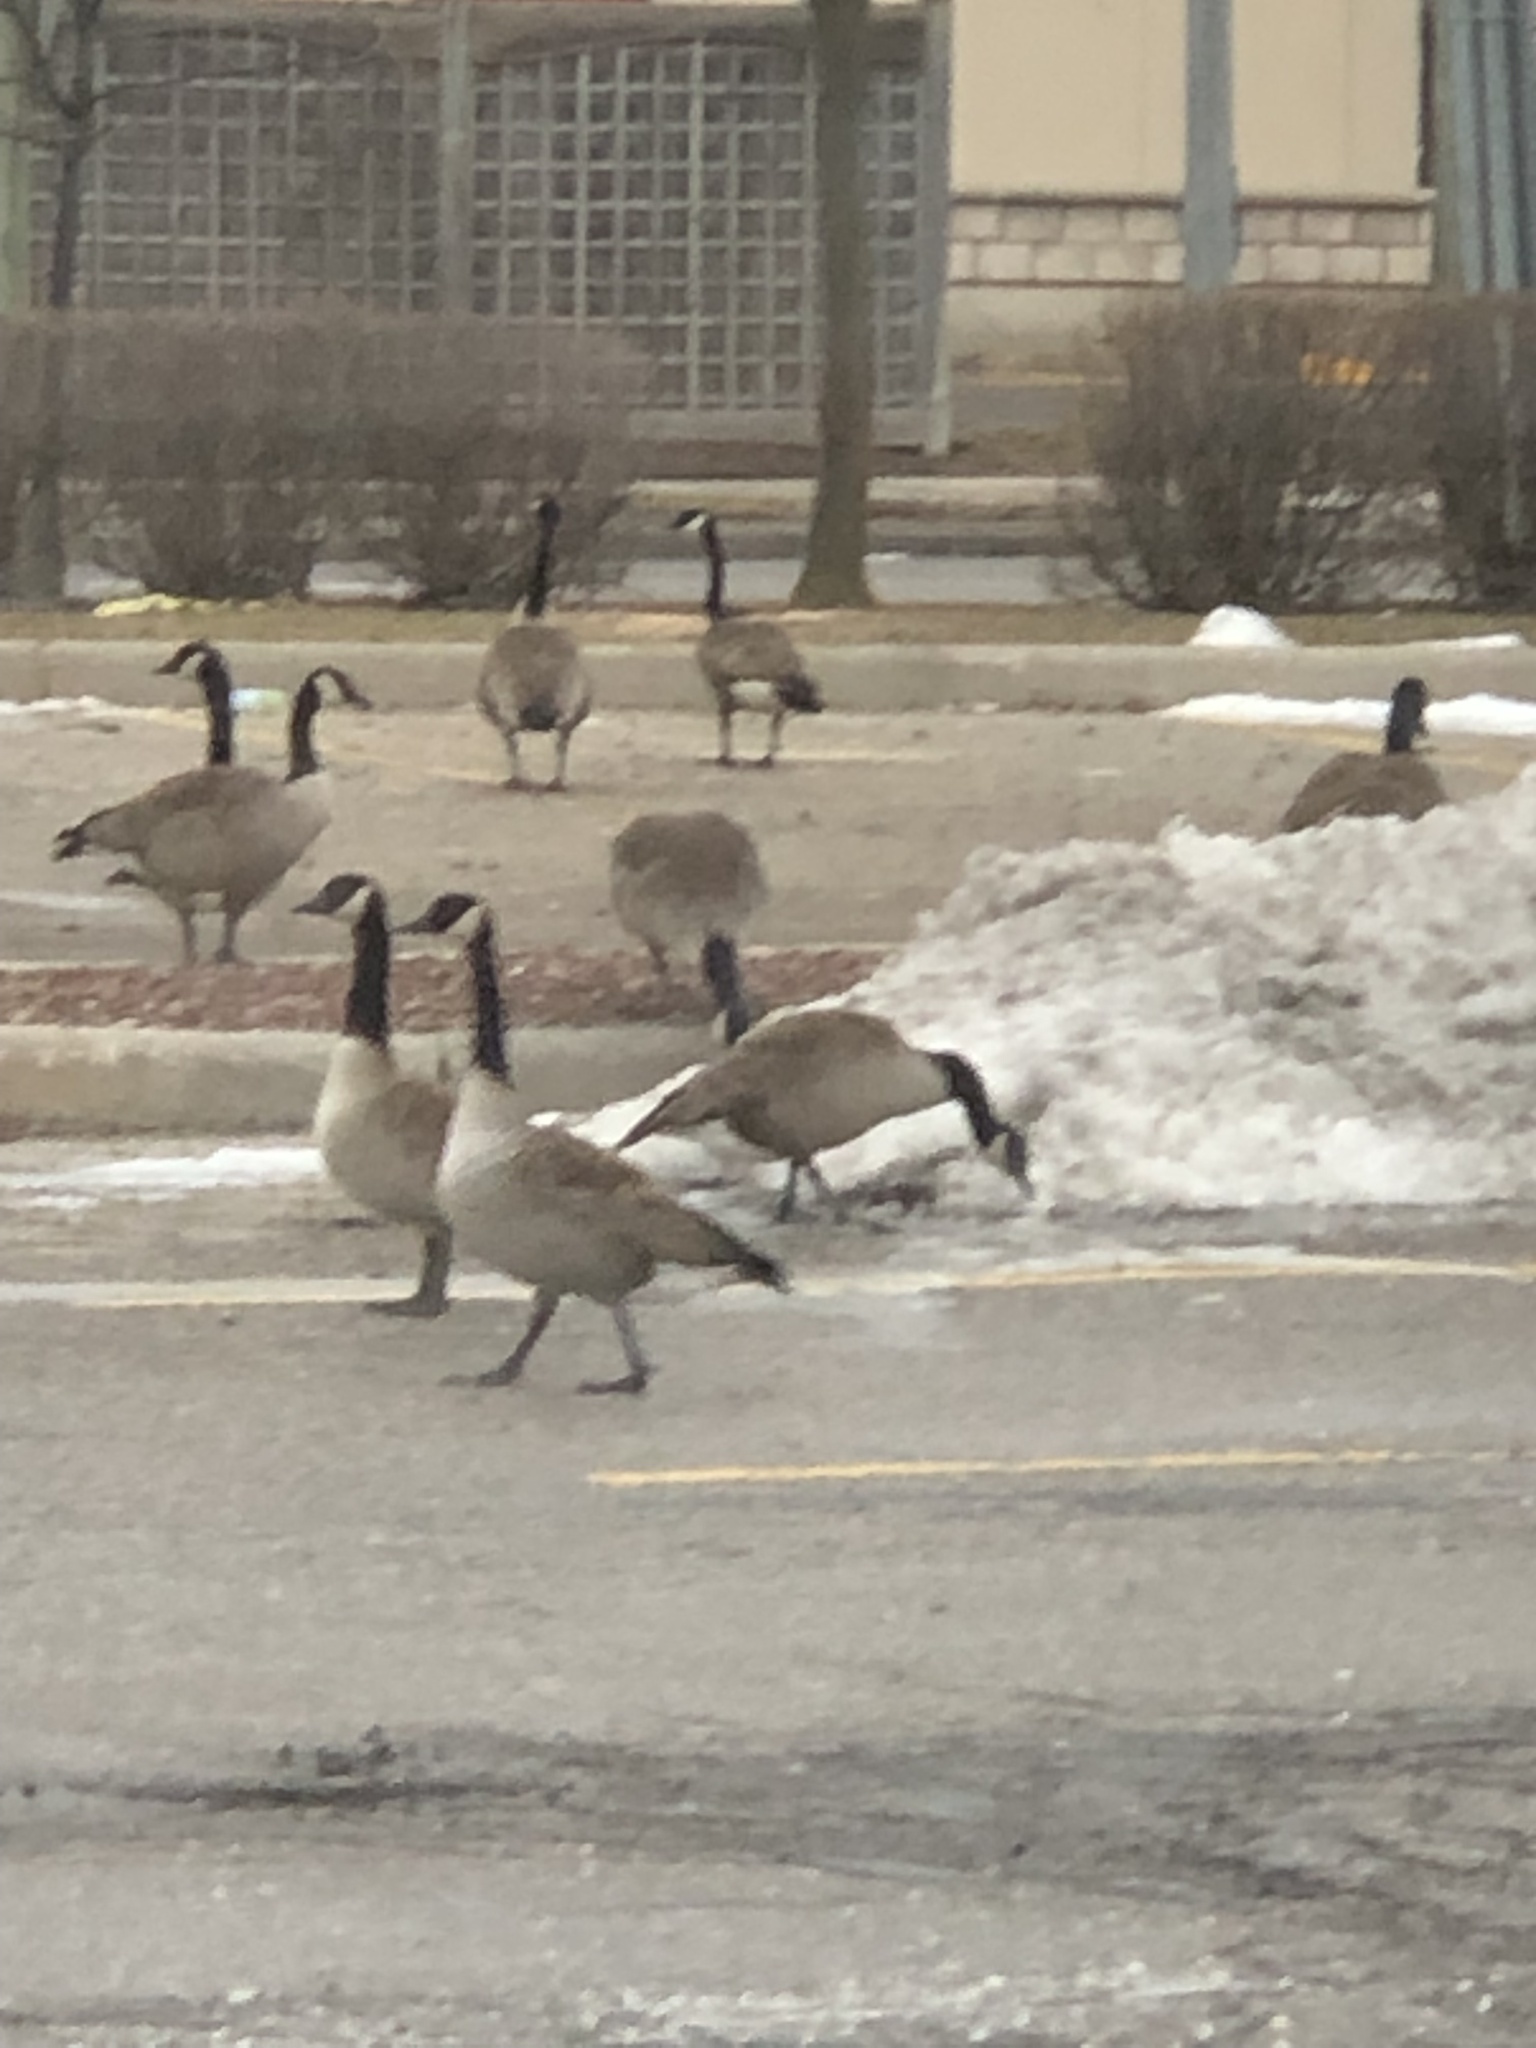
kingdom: Animalia
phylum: Chordata
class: Aves
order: Anseriformes
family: Anatidae
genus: Branta
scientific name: Branta canadensis
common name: Canada goose
